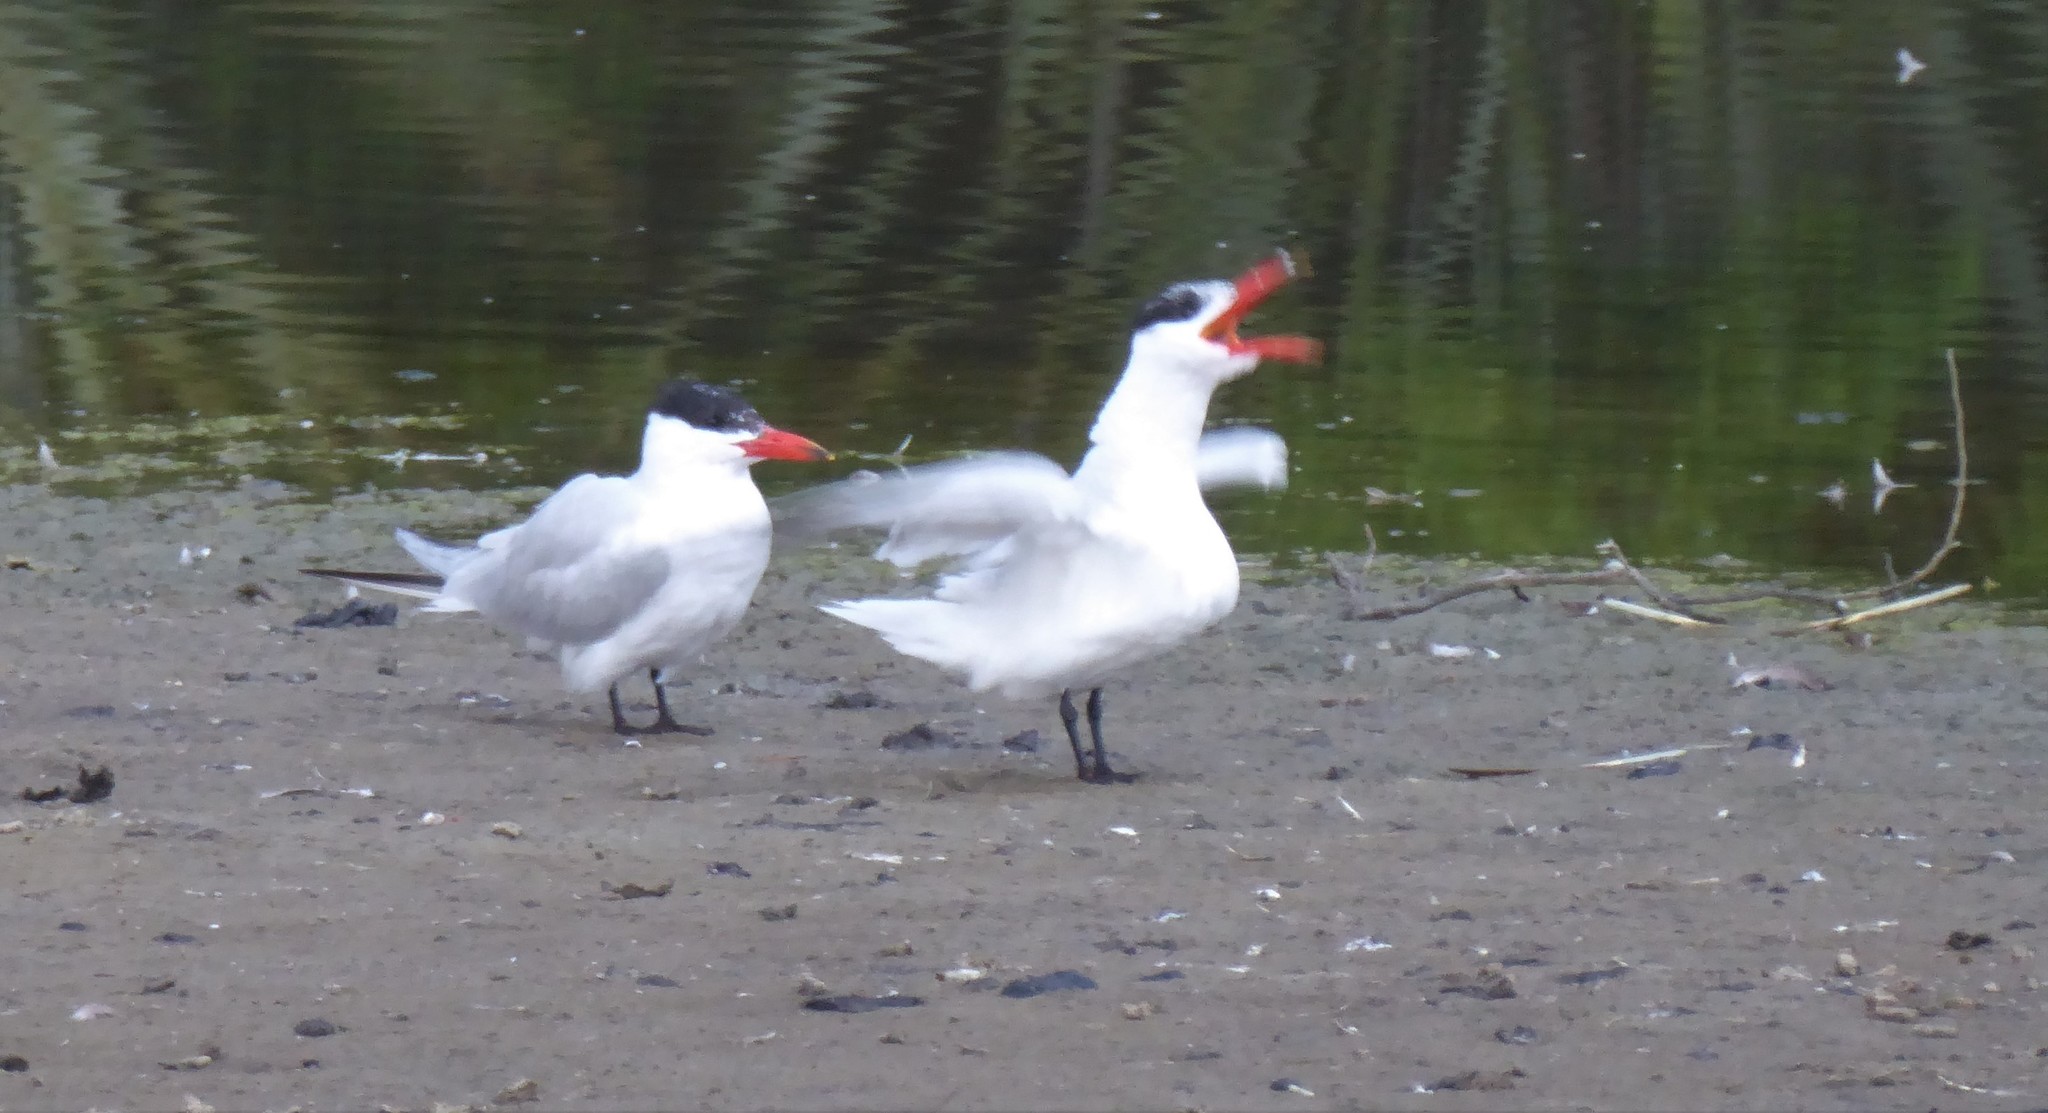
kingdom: Animalia
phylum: Chordata
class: Aves
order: Charadriiformes
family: Laridae
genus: Hydroprogne
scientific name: Hydroprogne caspia
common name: Caspian tern
